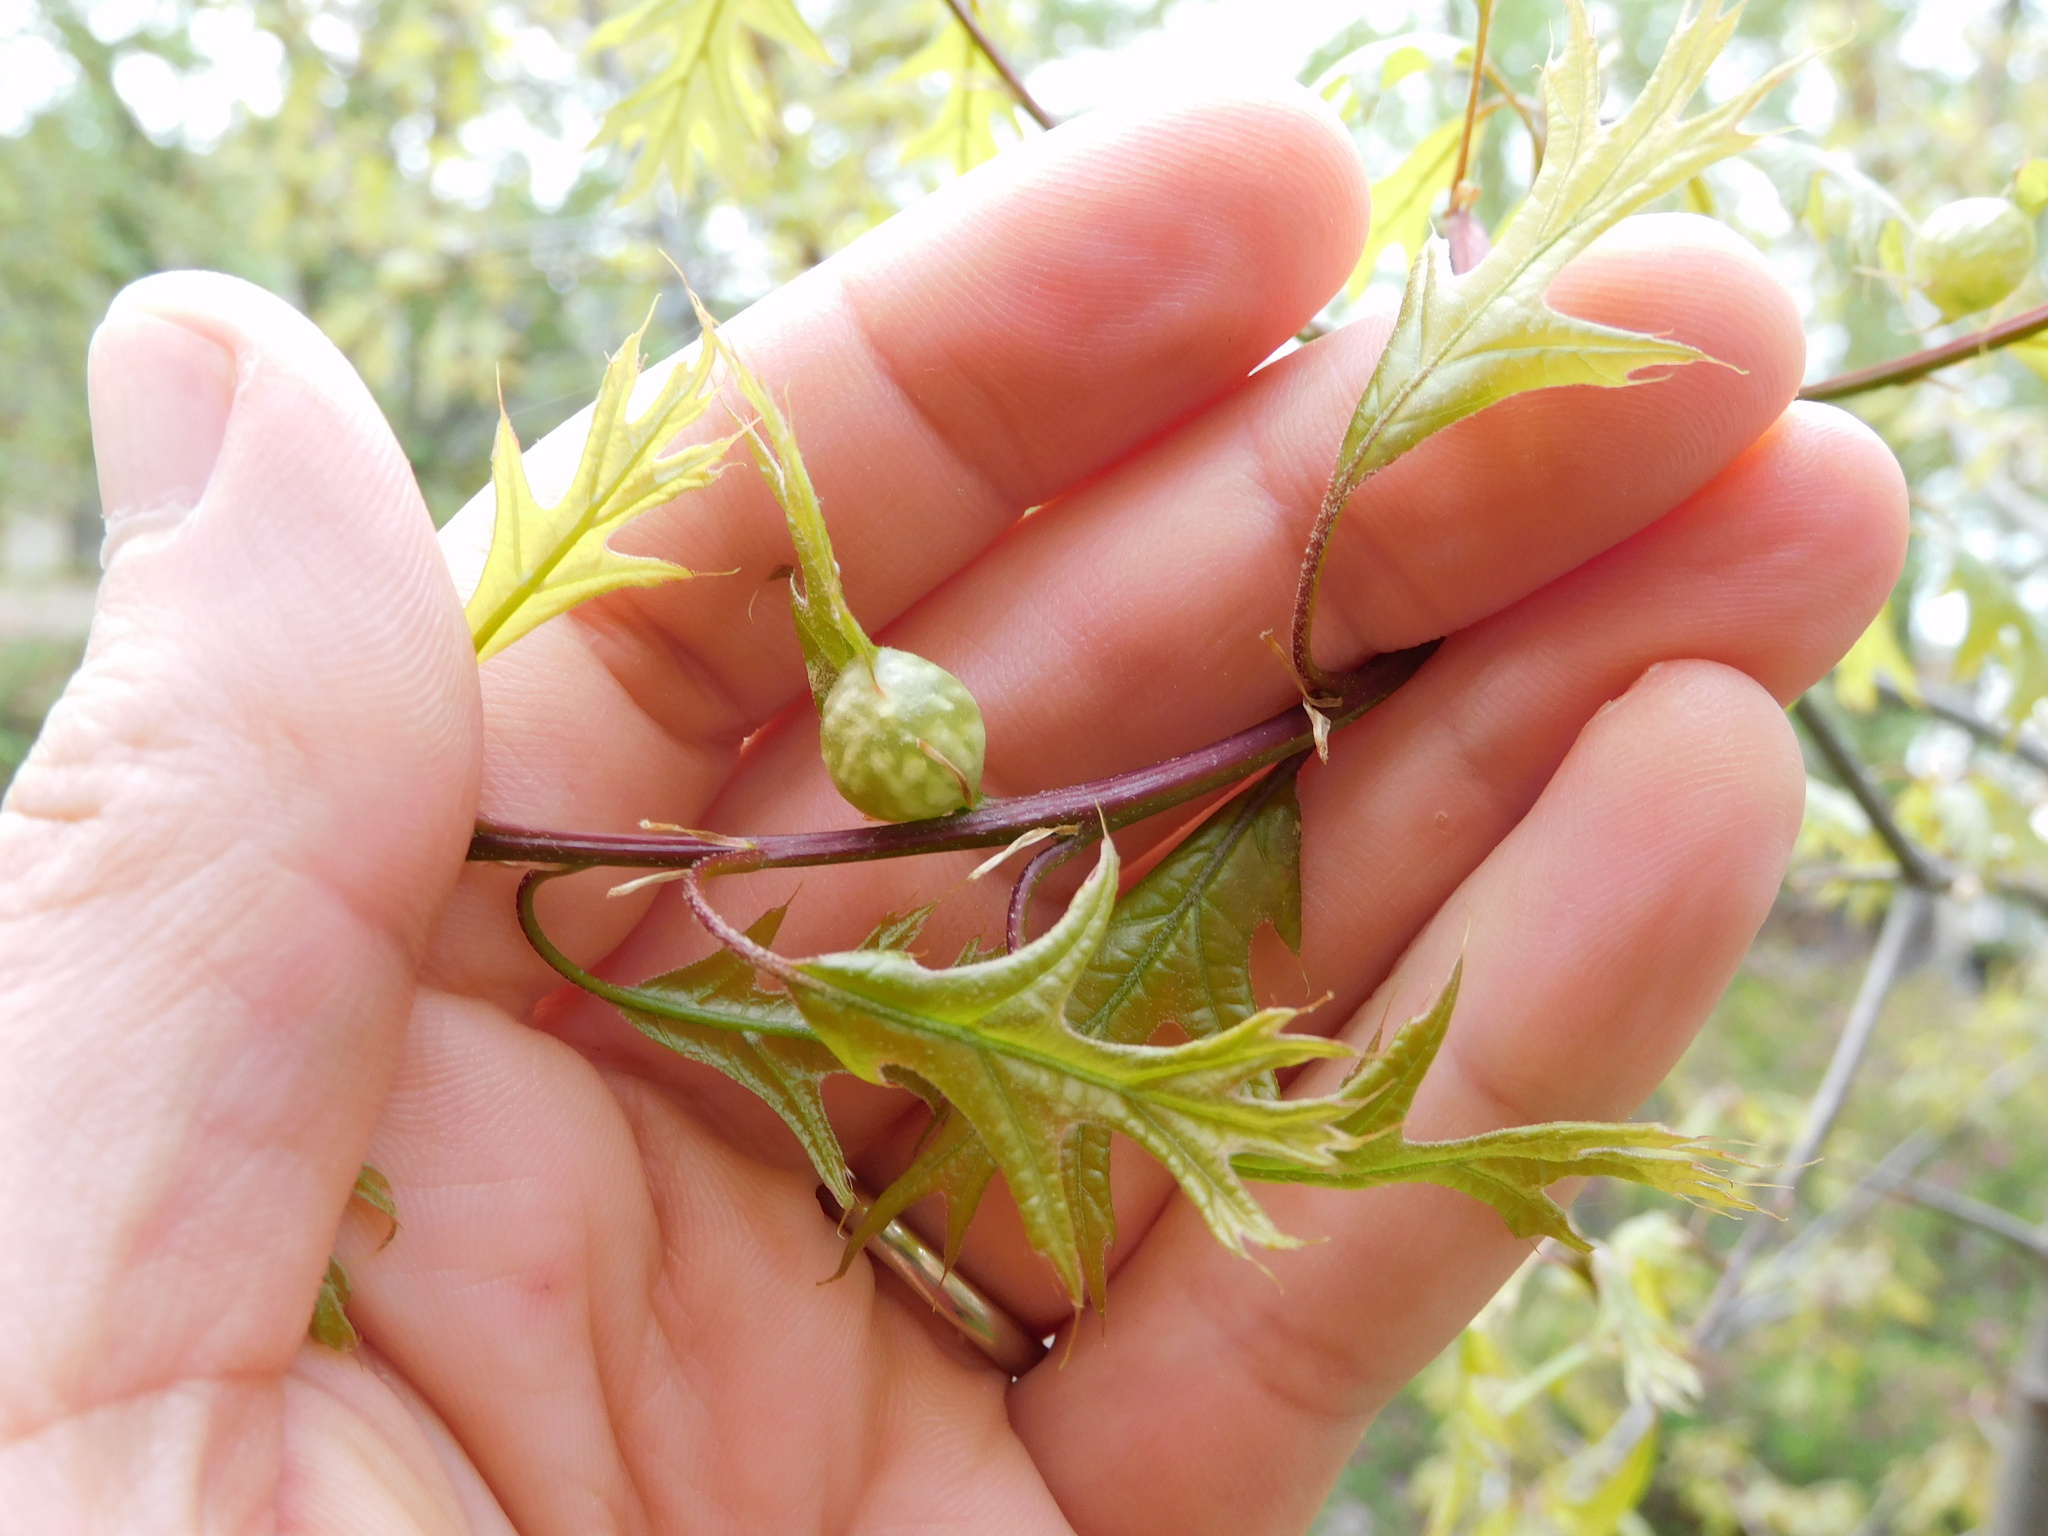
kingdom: Animalia
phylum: Arthropoda
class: Insecta
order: Hymenoptera
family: Cynipidae
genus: Dryocosmus
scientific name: Dryocosmus quercuspalustris
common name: Succulent oak gall wasp
